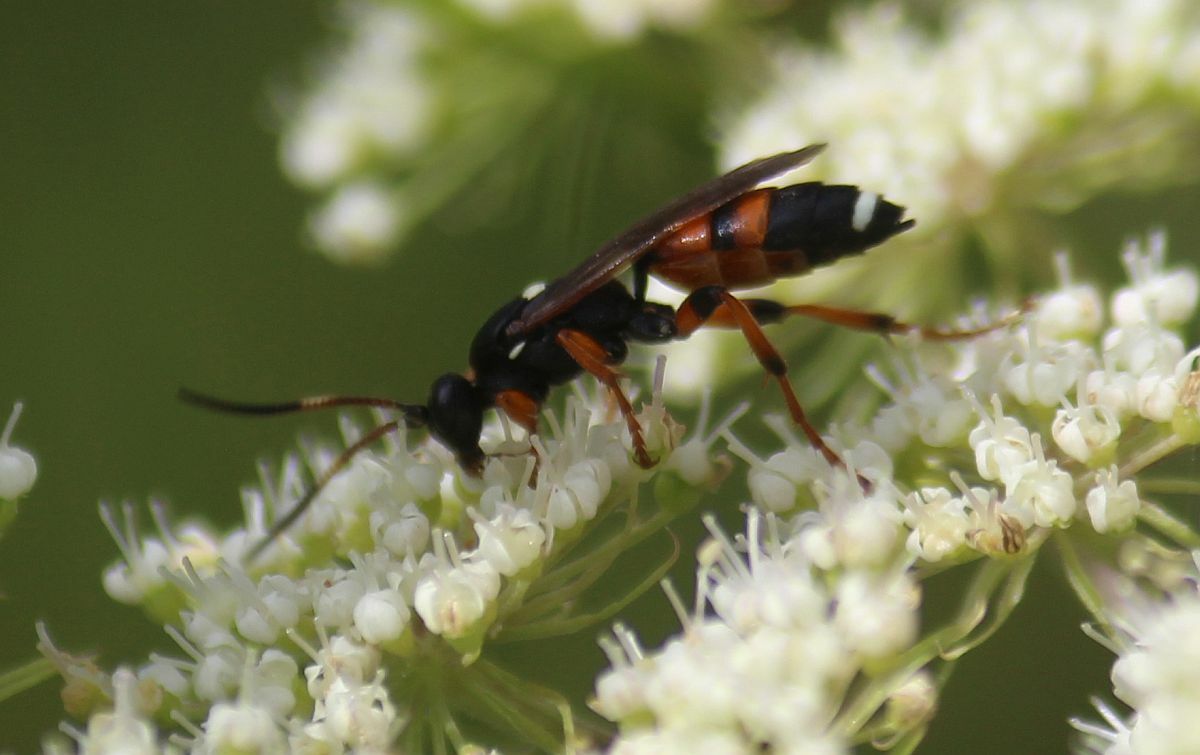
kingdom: Animalia
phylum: Arthropoda
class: Insecta
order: Hymenoptera
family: Ichneumonidae
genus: Ichneumon
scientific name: Ichneumon sarcitorius
